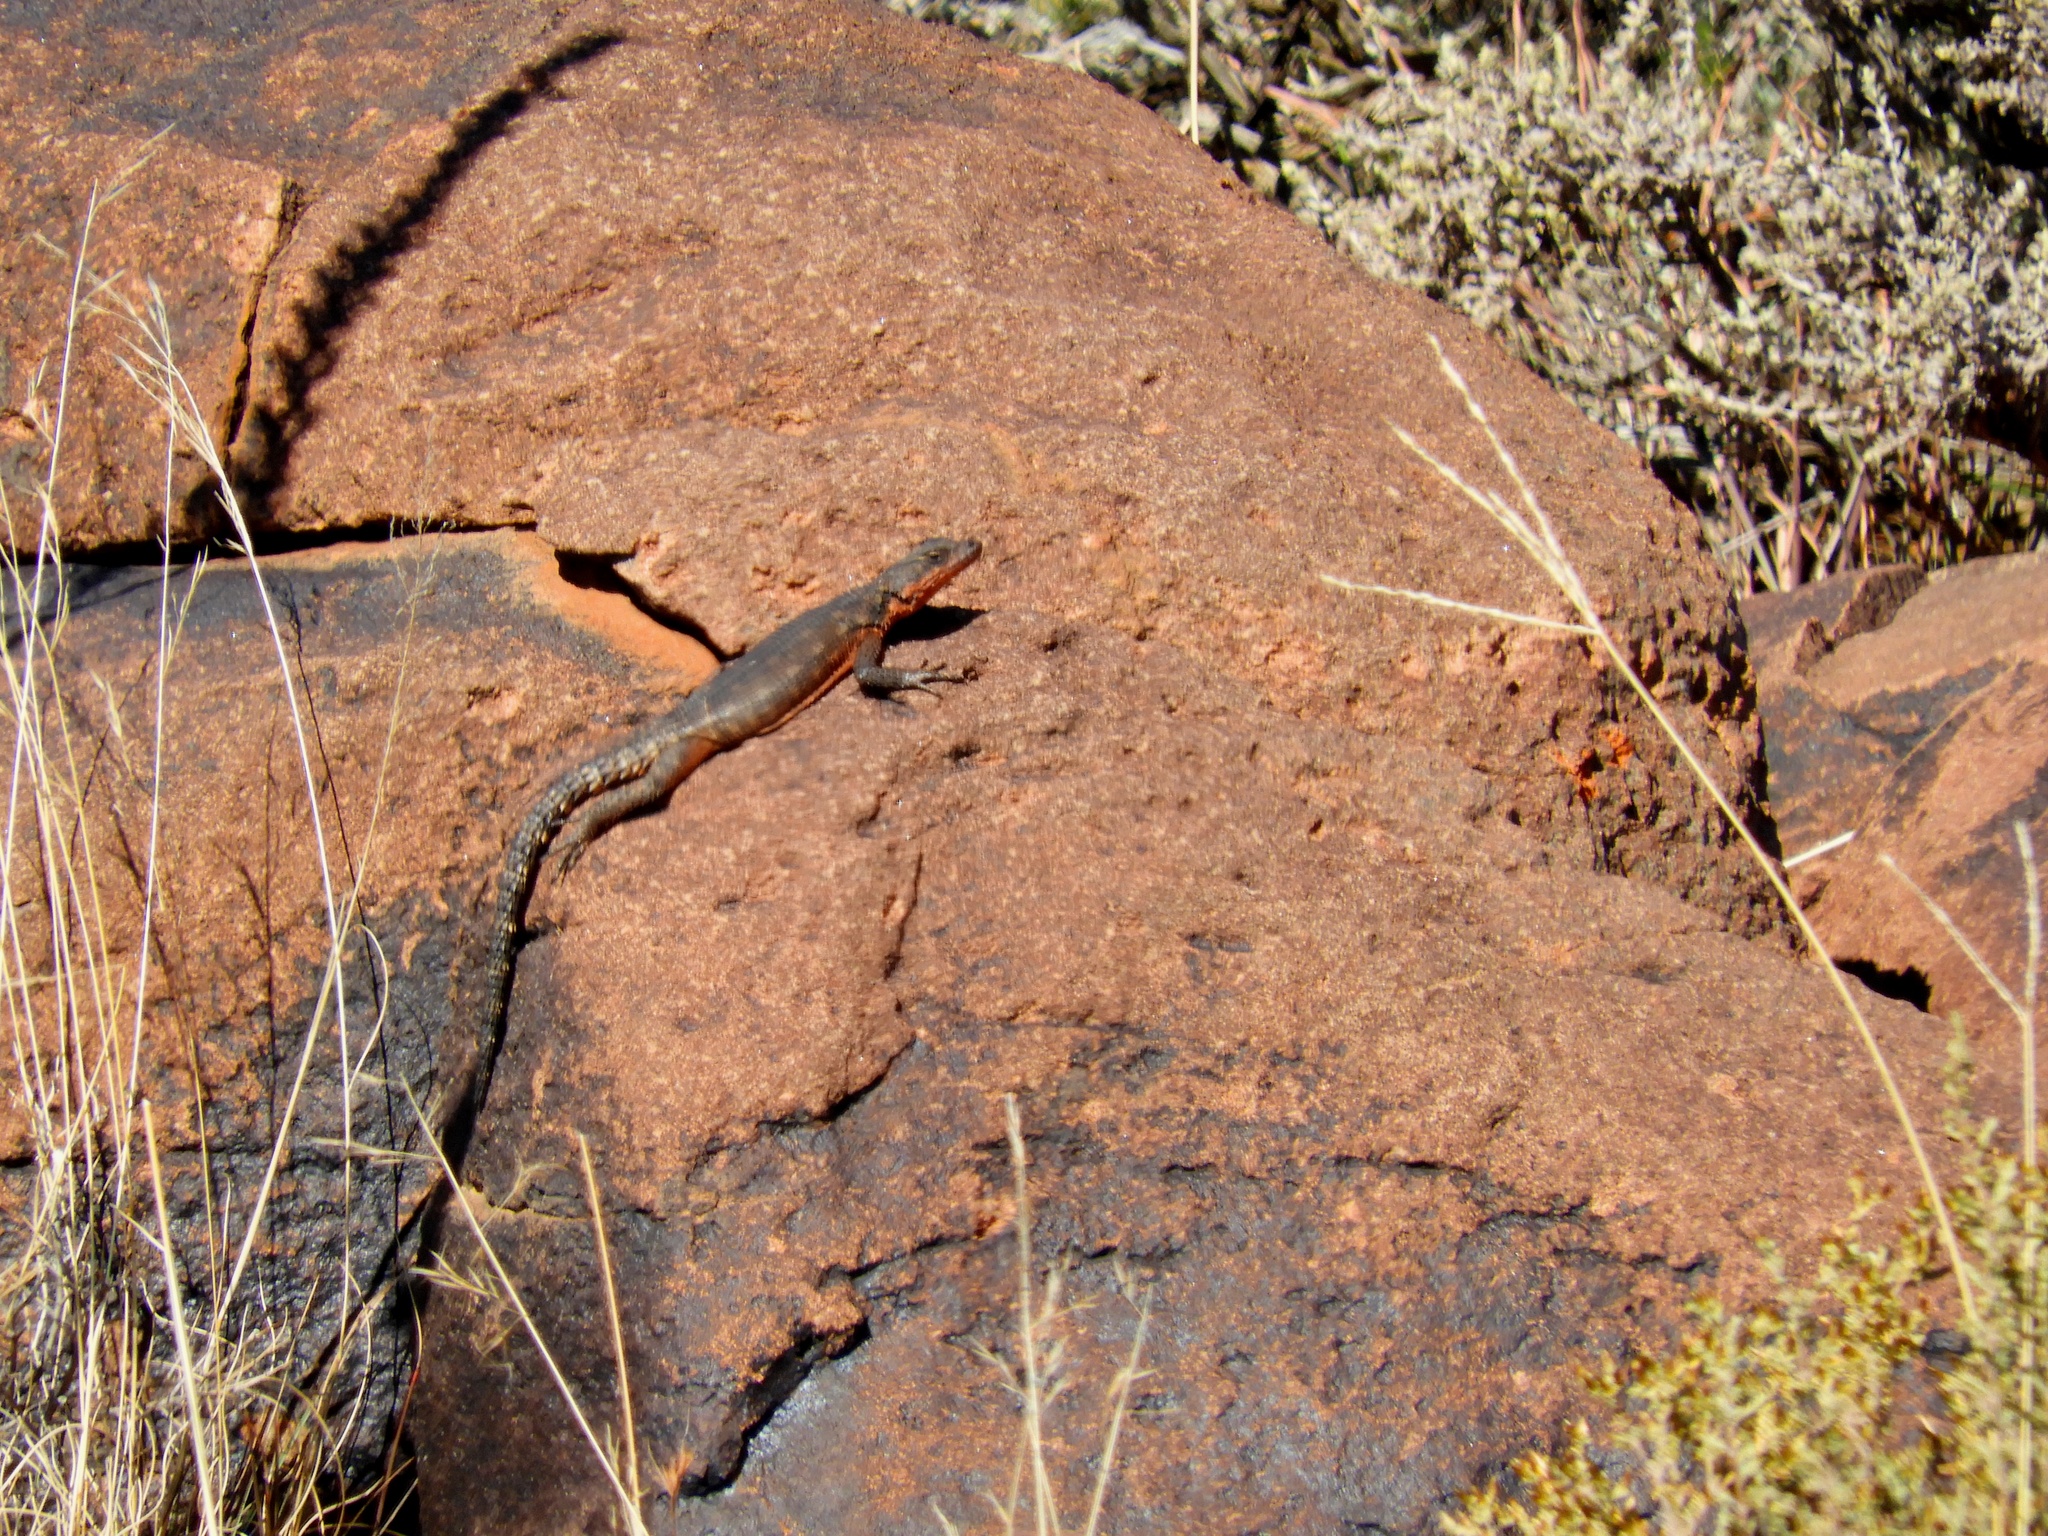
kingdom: Animalia
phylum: Chordata
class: Squamata
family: Cordylidae
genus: Karusasaurus
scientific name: Karusasaurus polyzonus
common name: Karoo girdled lizard
